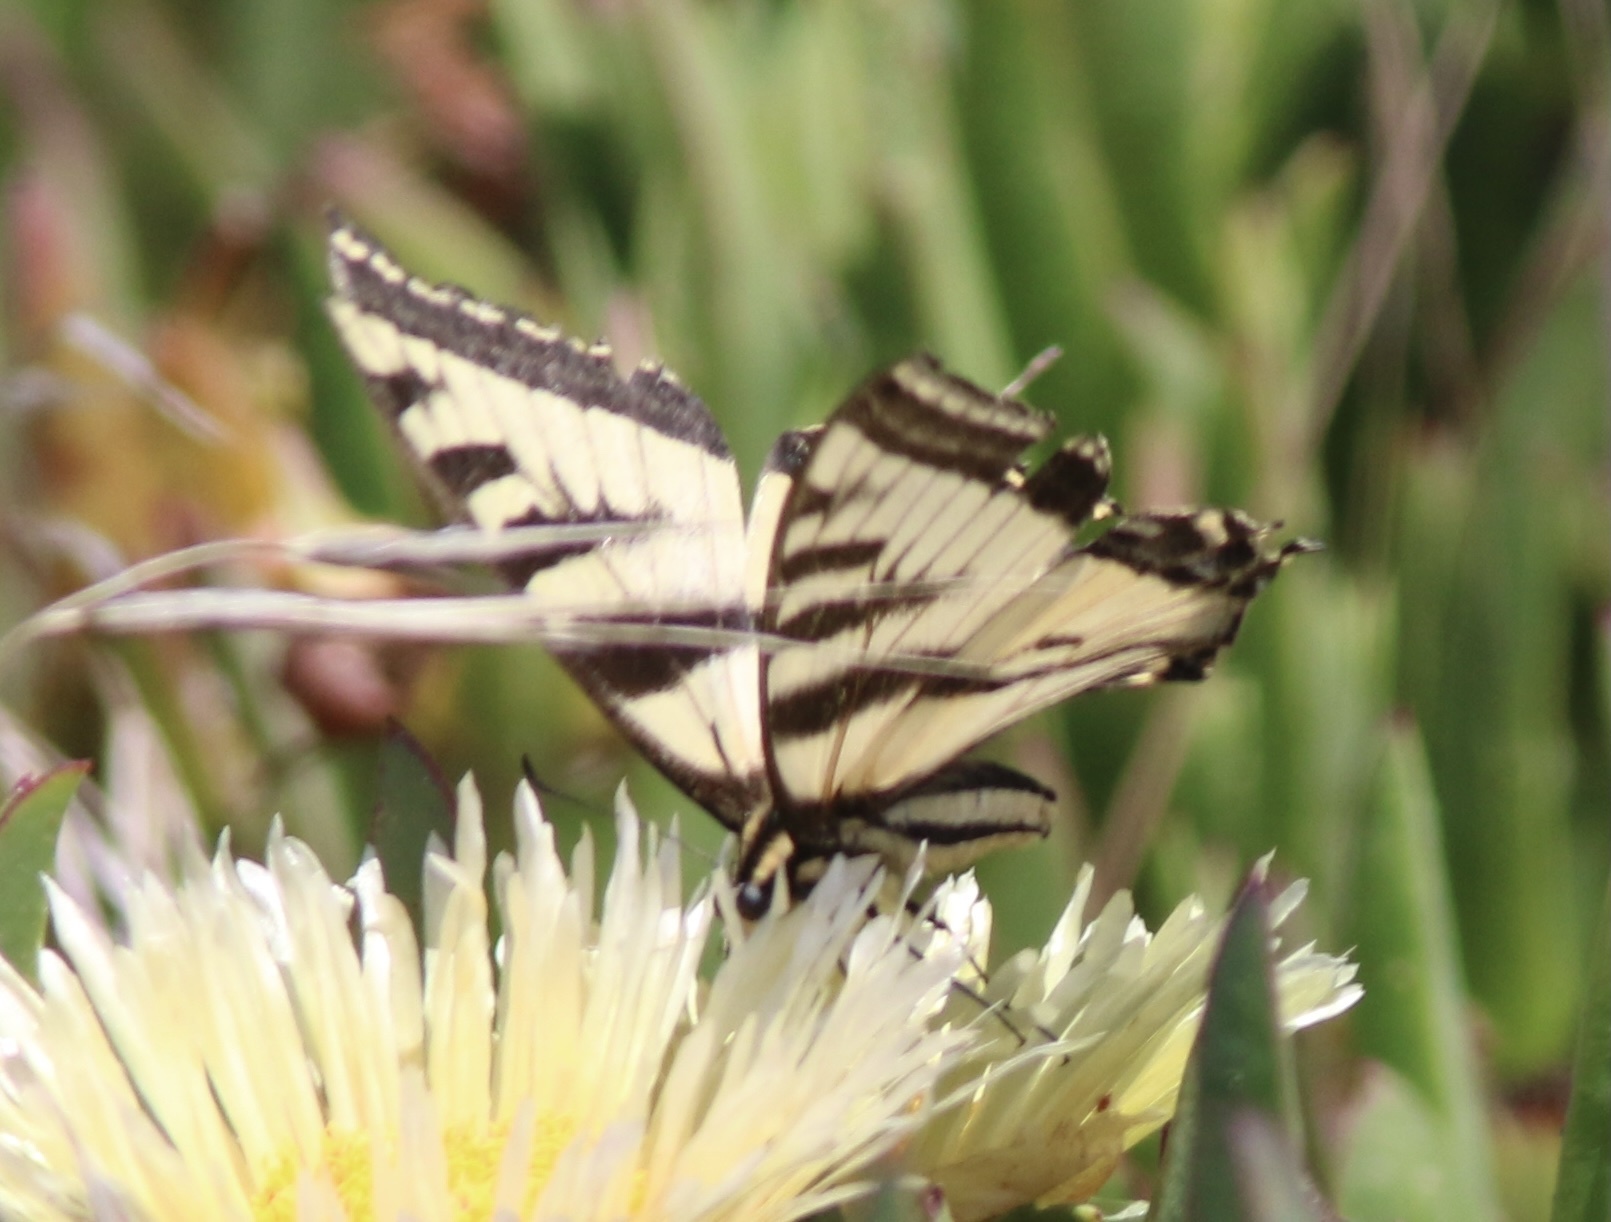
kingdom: Animalia
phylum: Arthropoda
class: Insecta
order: Lepidoptera
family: Papilionidae
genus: Papilio
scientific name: Papilio rutulus
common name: Western tiger swallowtail
